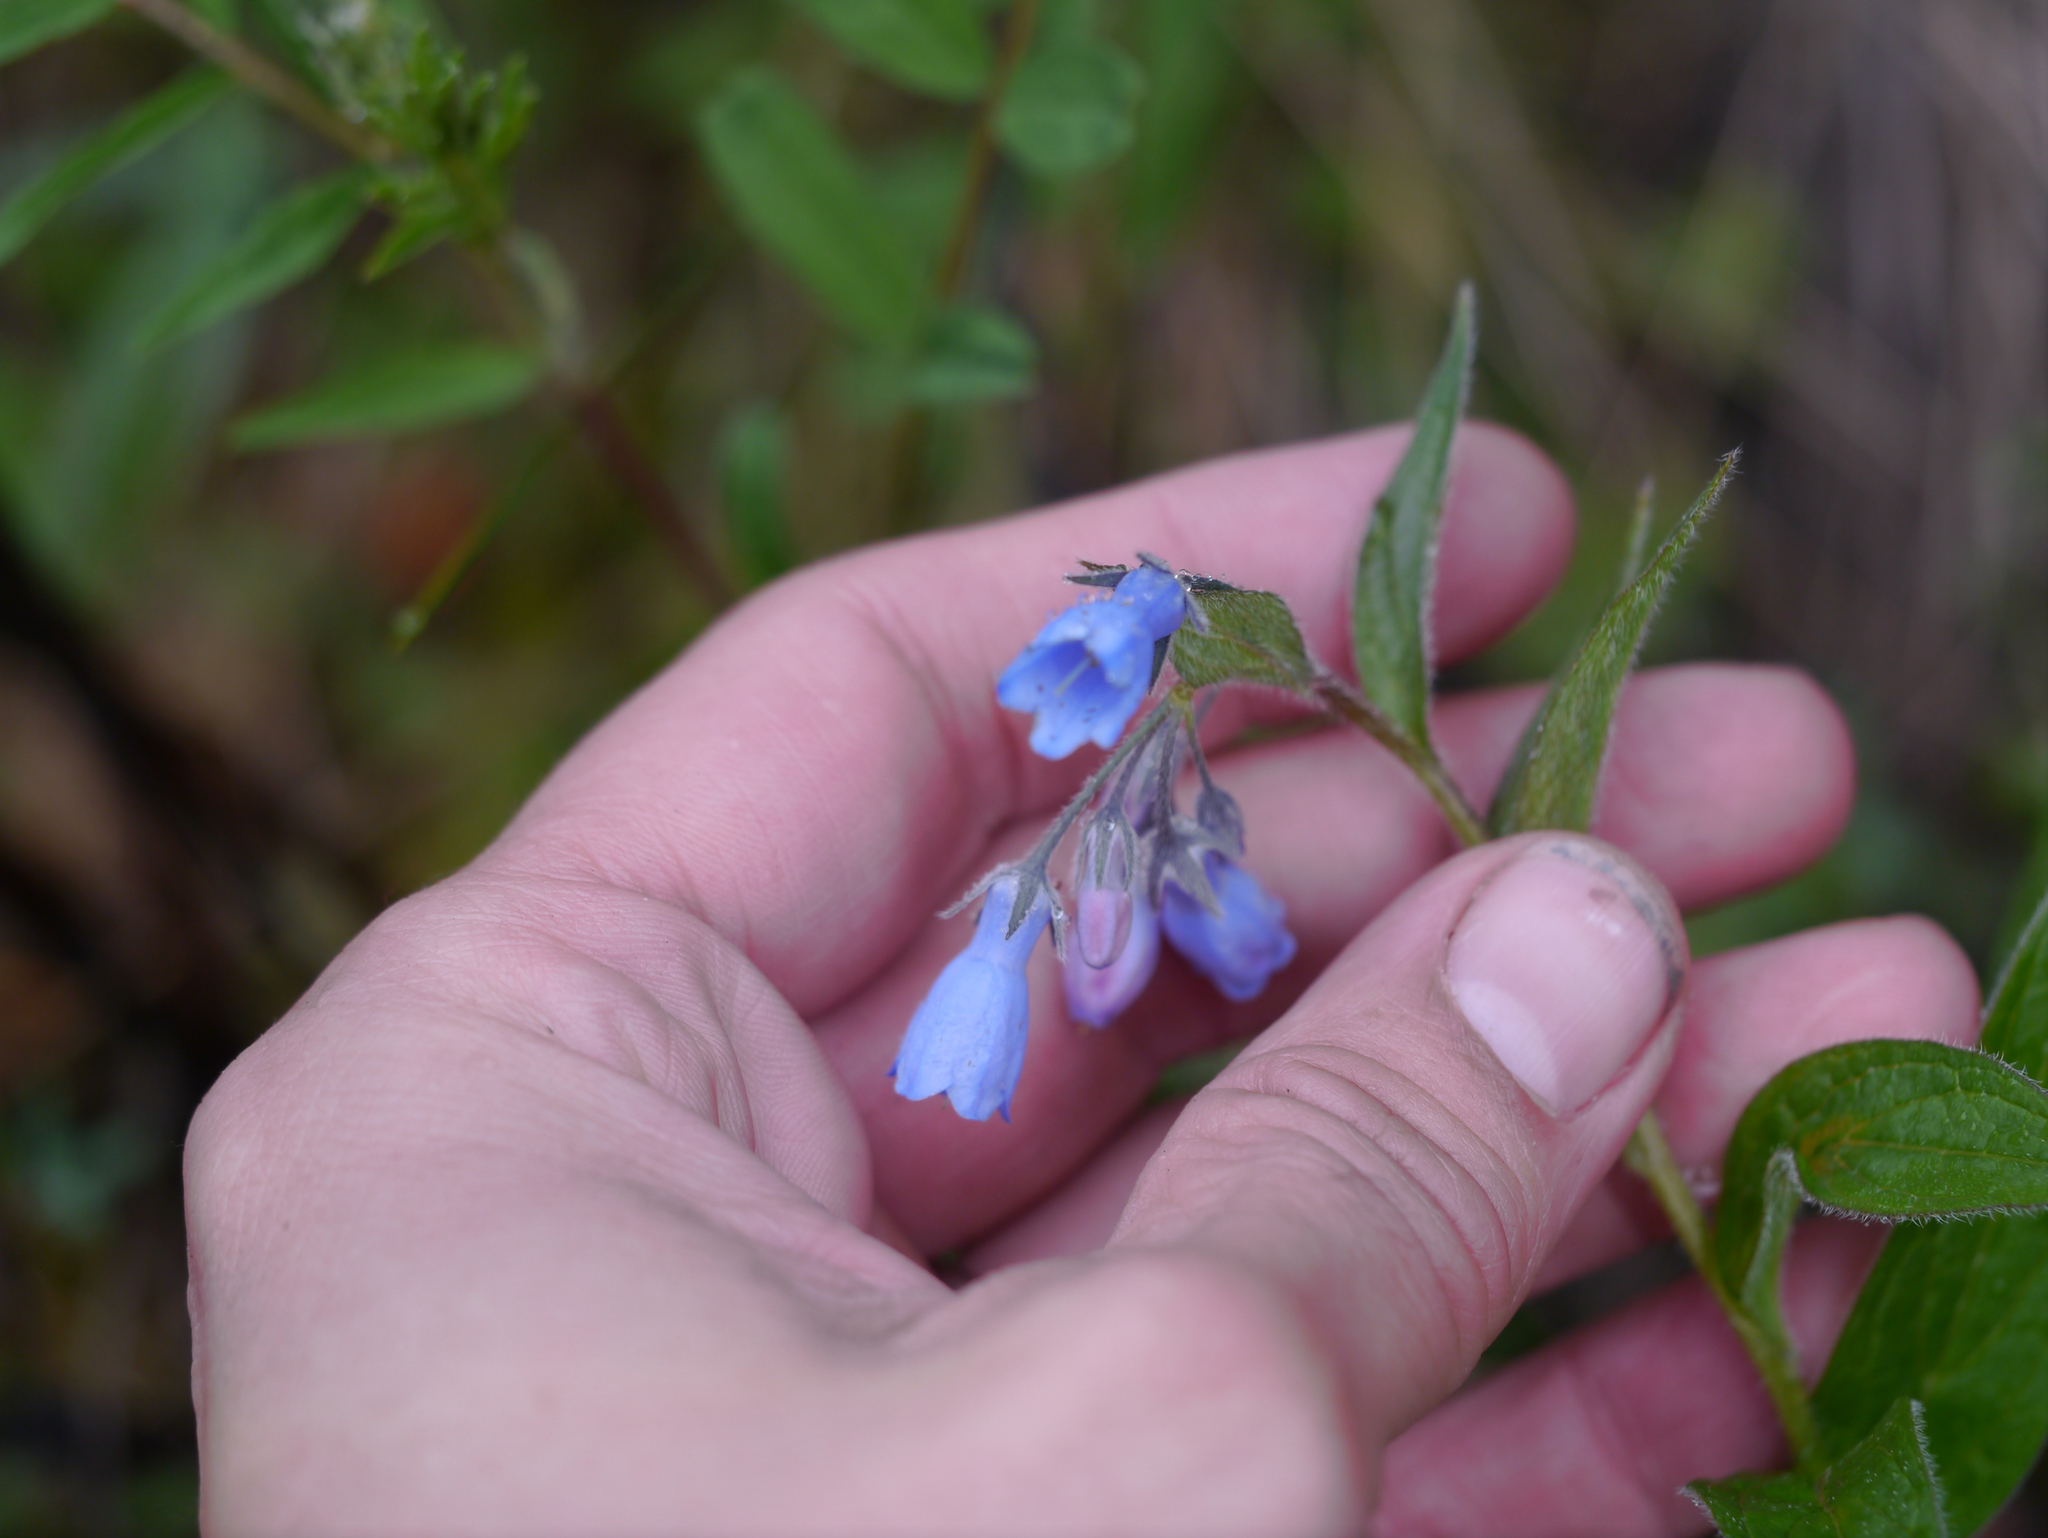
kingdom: Plantae
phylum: Tracheophyta
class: Magnoliopsida
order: Boraginales
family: Boraginaceae
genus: Mertensia
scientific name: Mertensia paniculata
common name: Panicled bluebells
